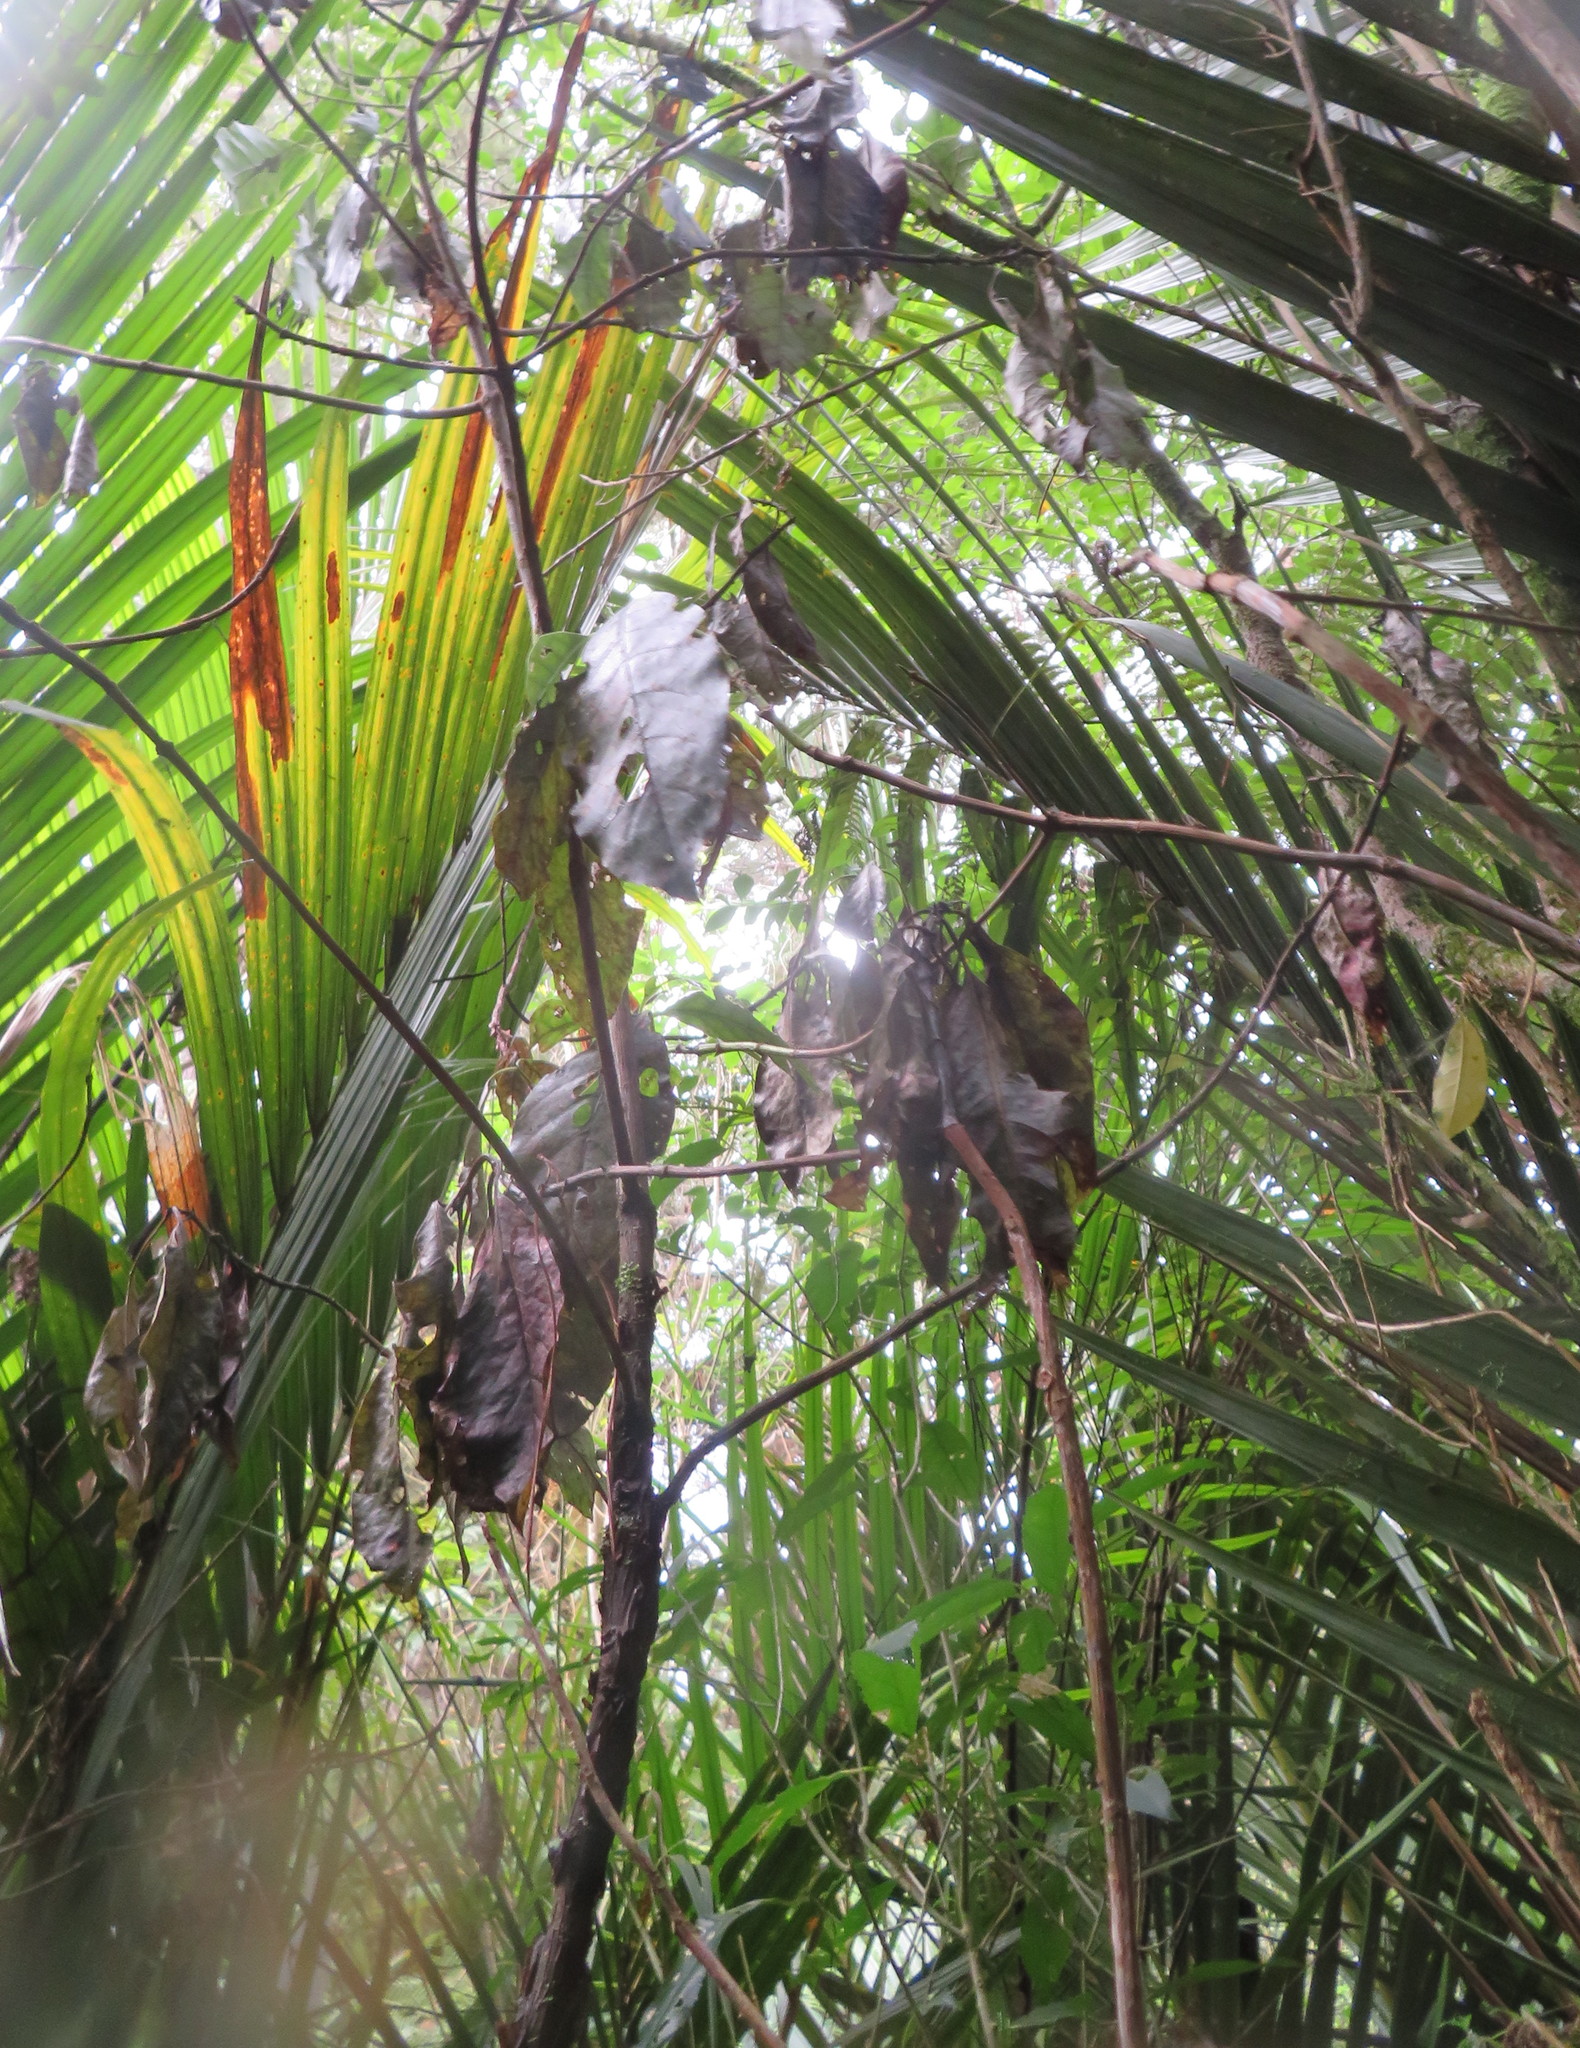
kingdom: Plantae
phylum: Tracheophyta
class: Magnoliopsida
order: Gentianales
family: Rubiaceae
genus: Coprosma
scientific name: Coprosma autumnalis
